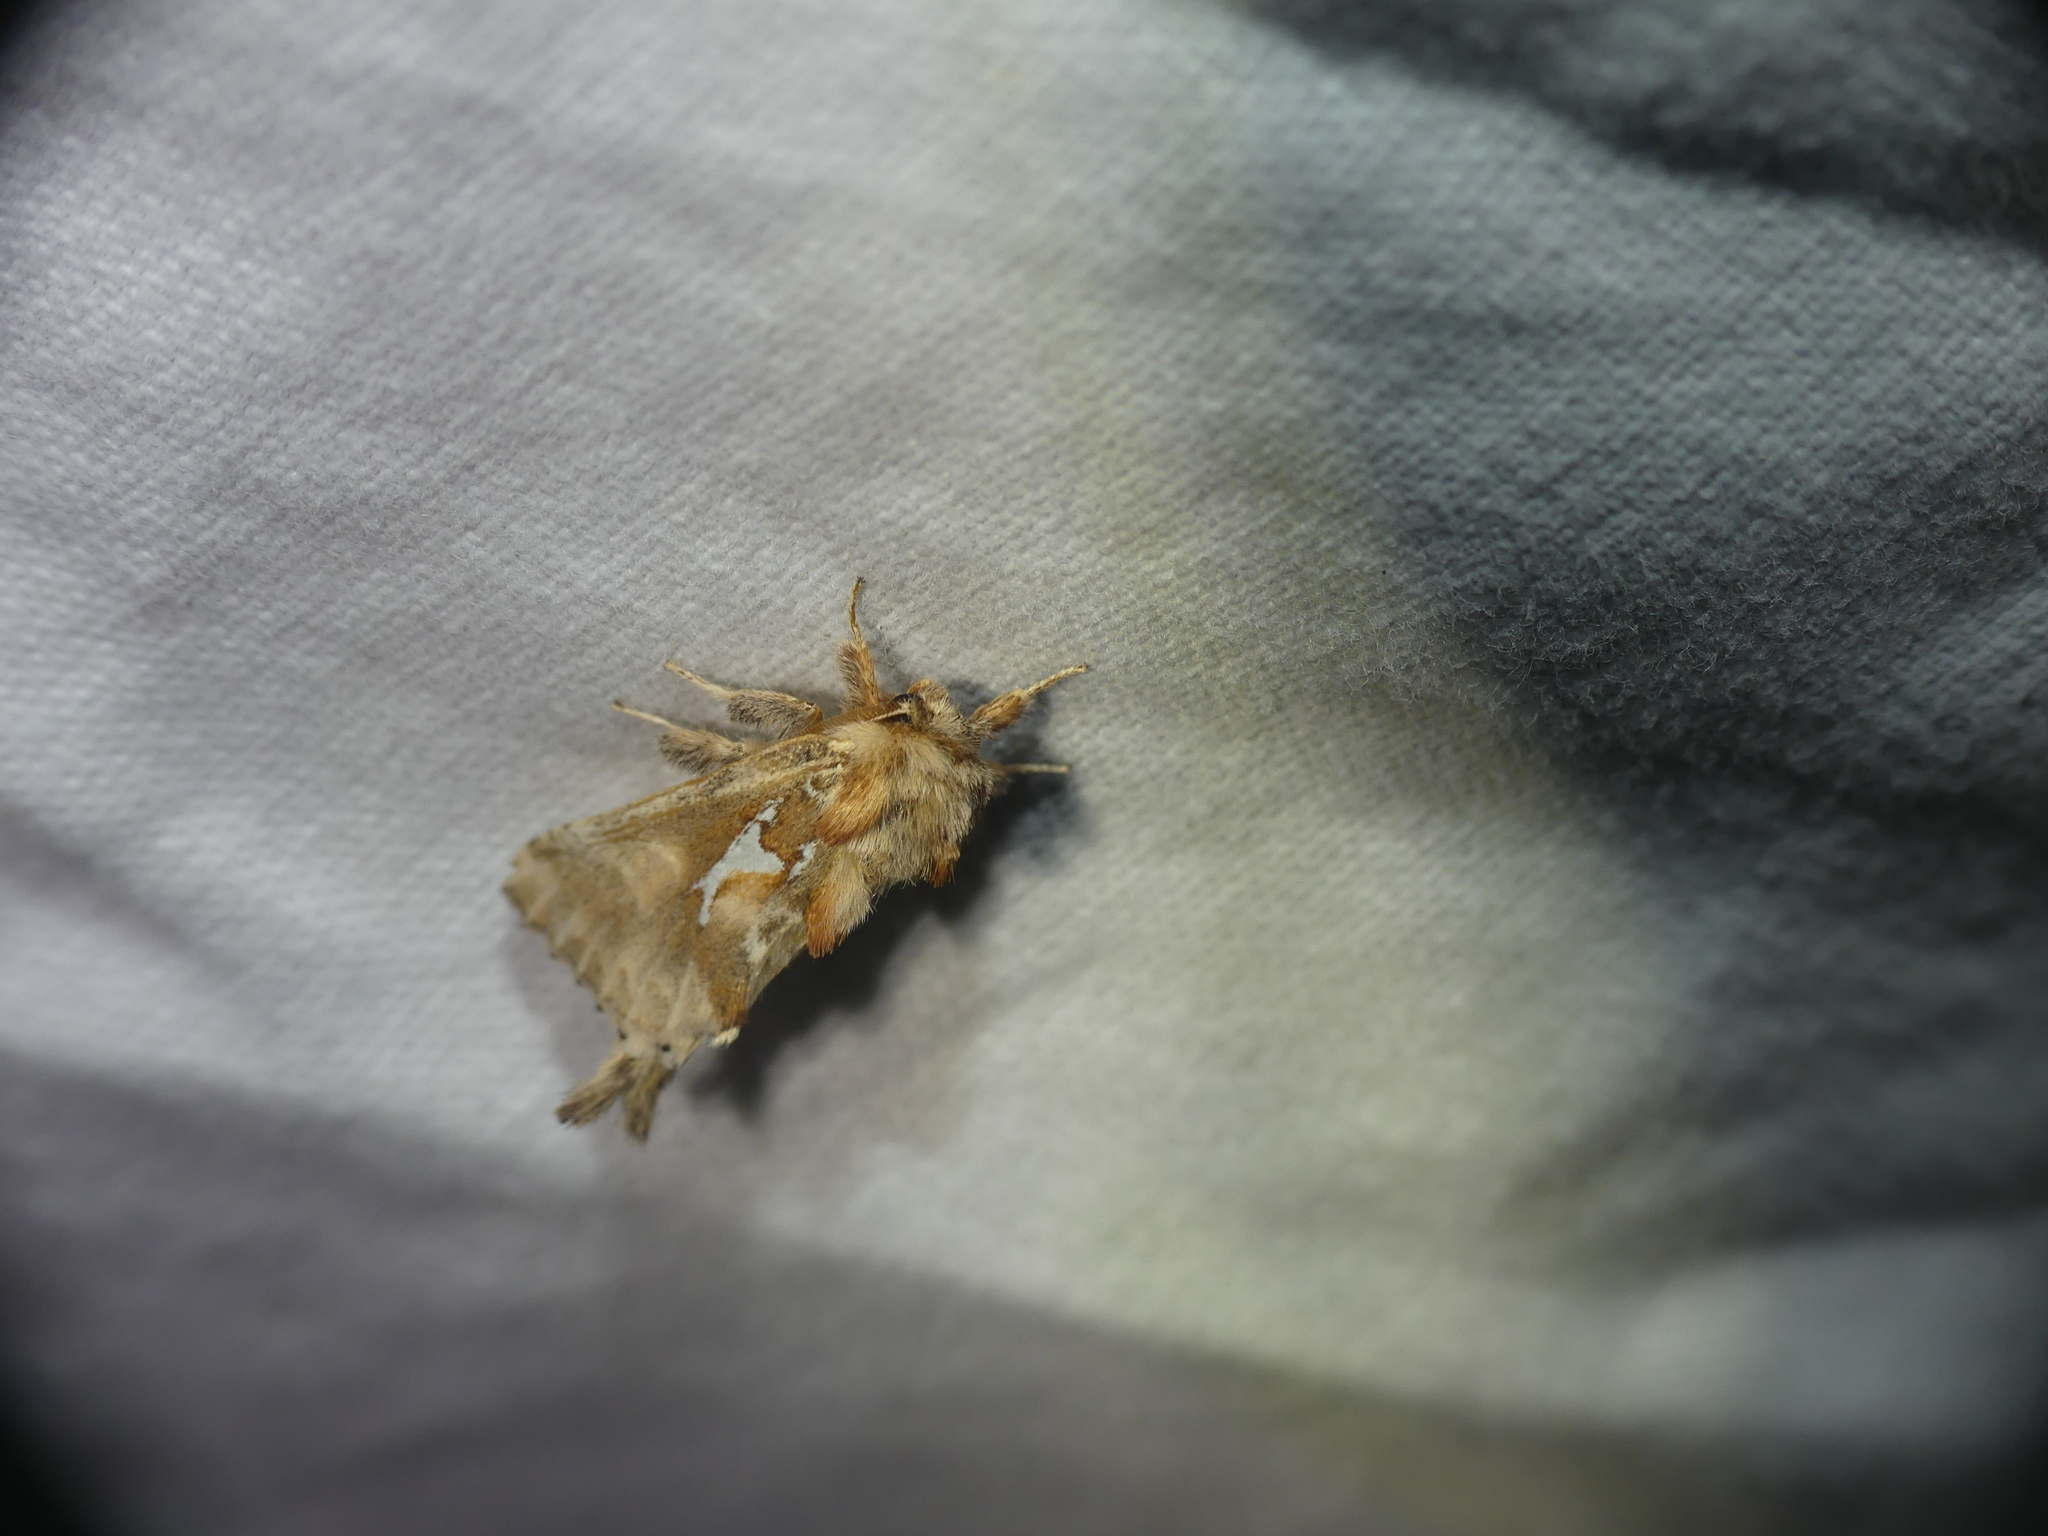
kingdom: Animalia
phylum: Arthropoda
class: Insecta
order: Lepidoptera
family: Notodontidae
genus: Spatalia
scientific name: Spatalia argentina
